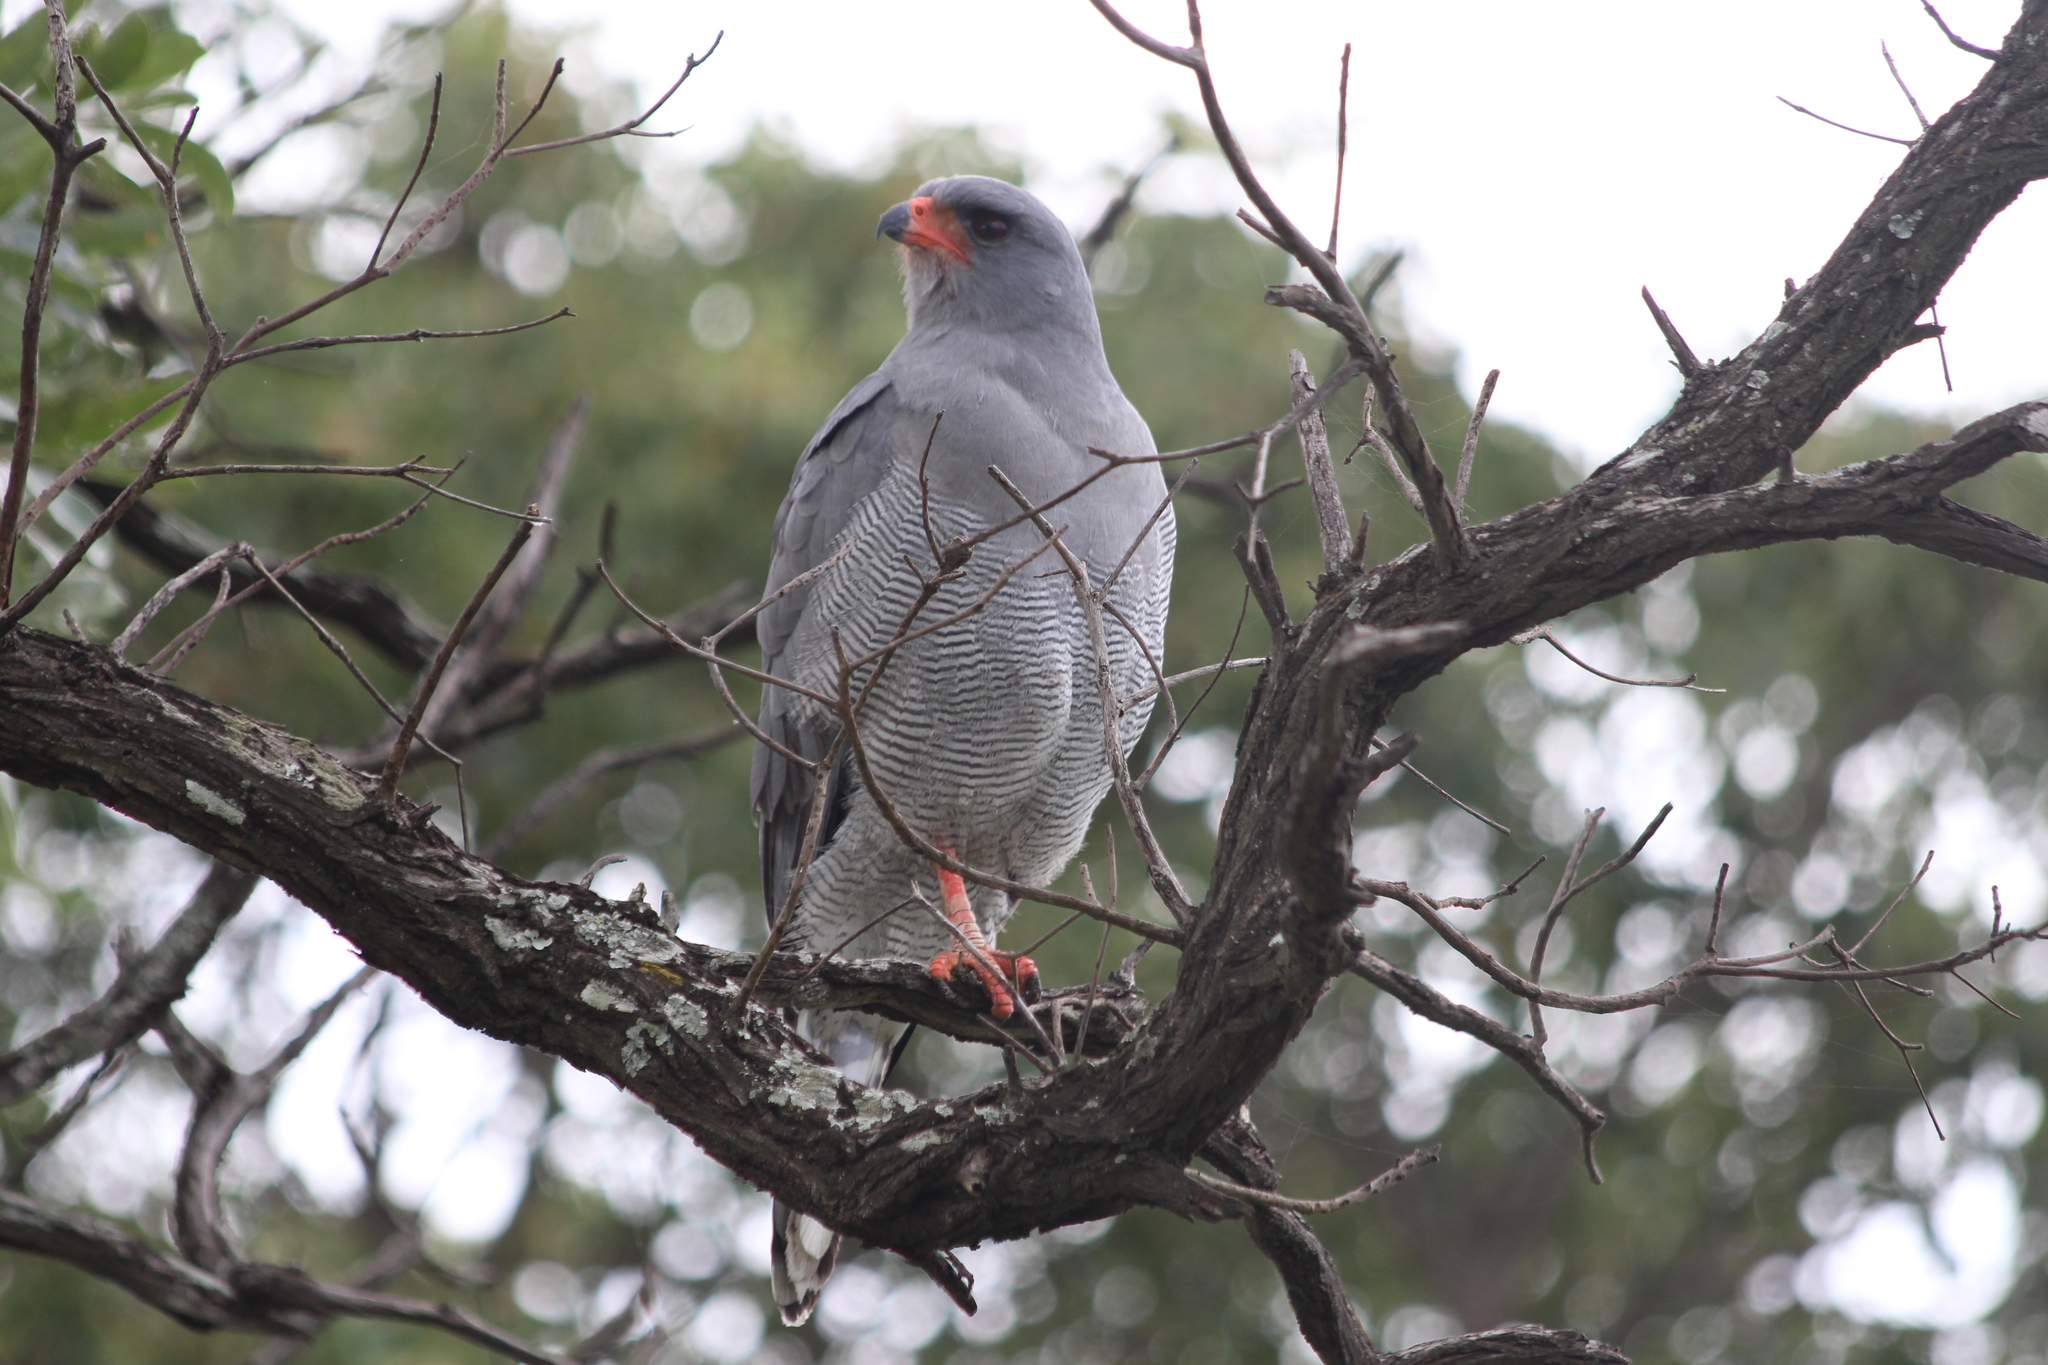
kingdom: Animalia
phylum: Chordata
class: Aves
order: Accipitriformes
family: Accipitridae
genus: Melierax
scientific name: Melierax metabates
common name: Dark chanting-goshawk
